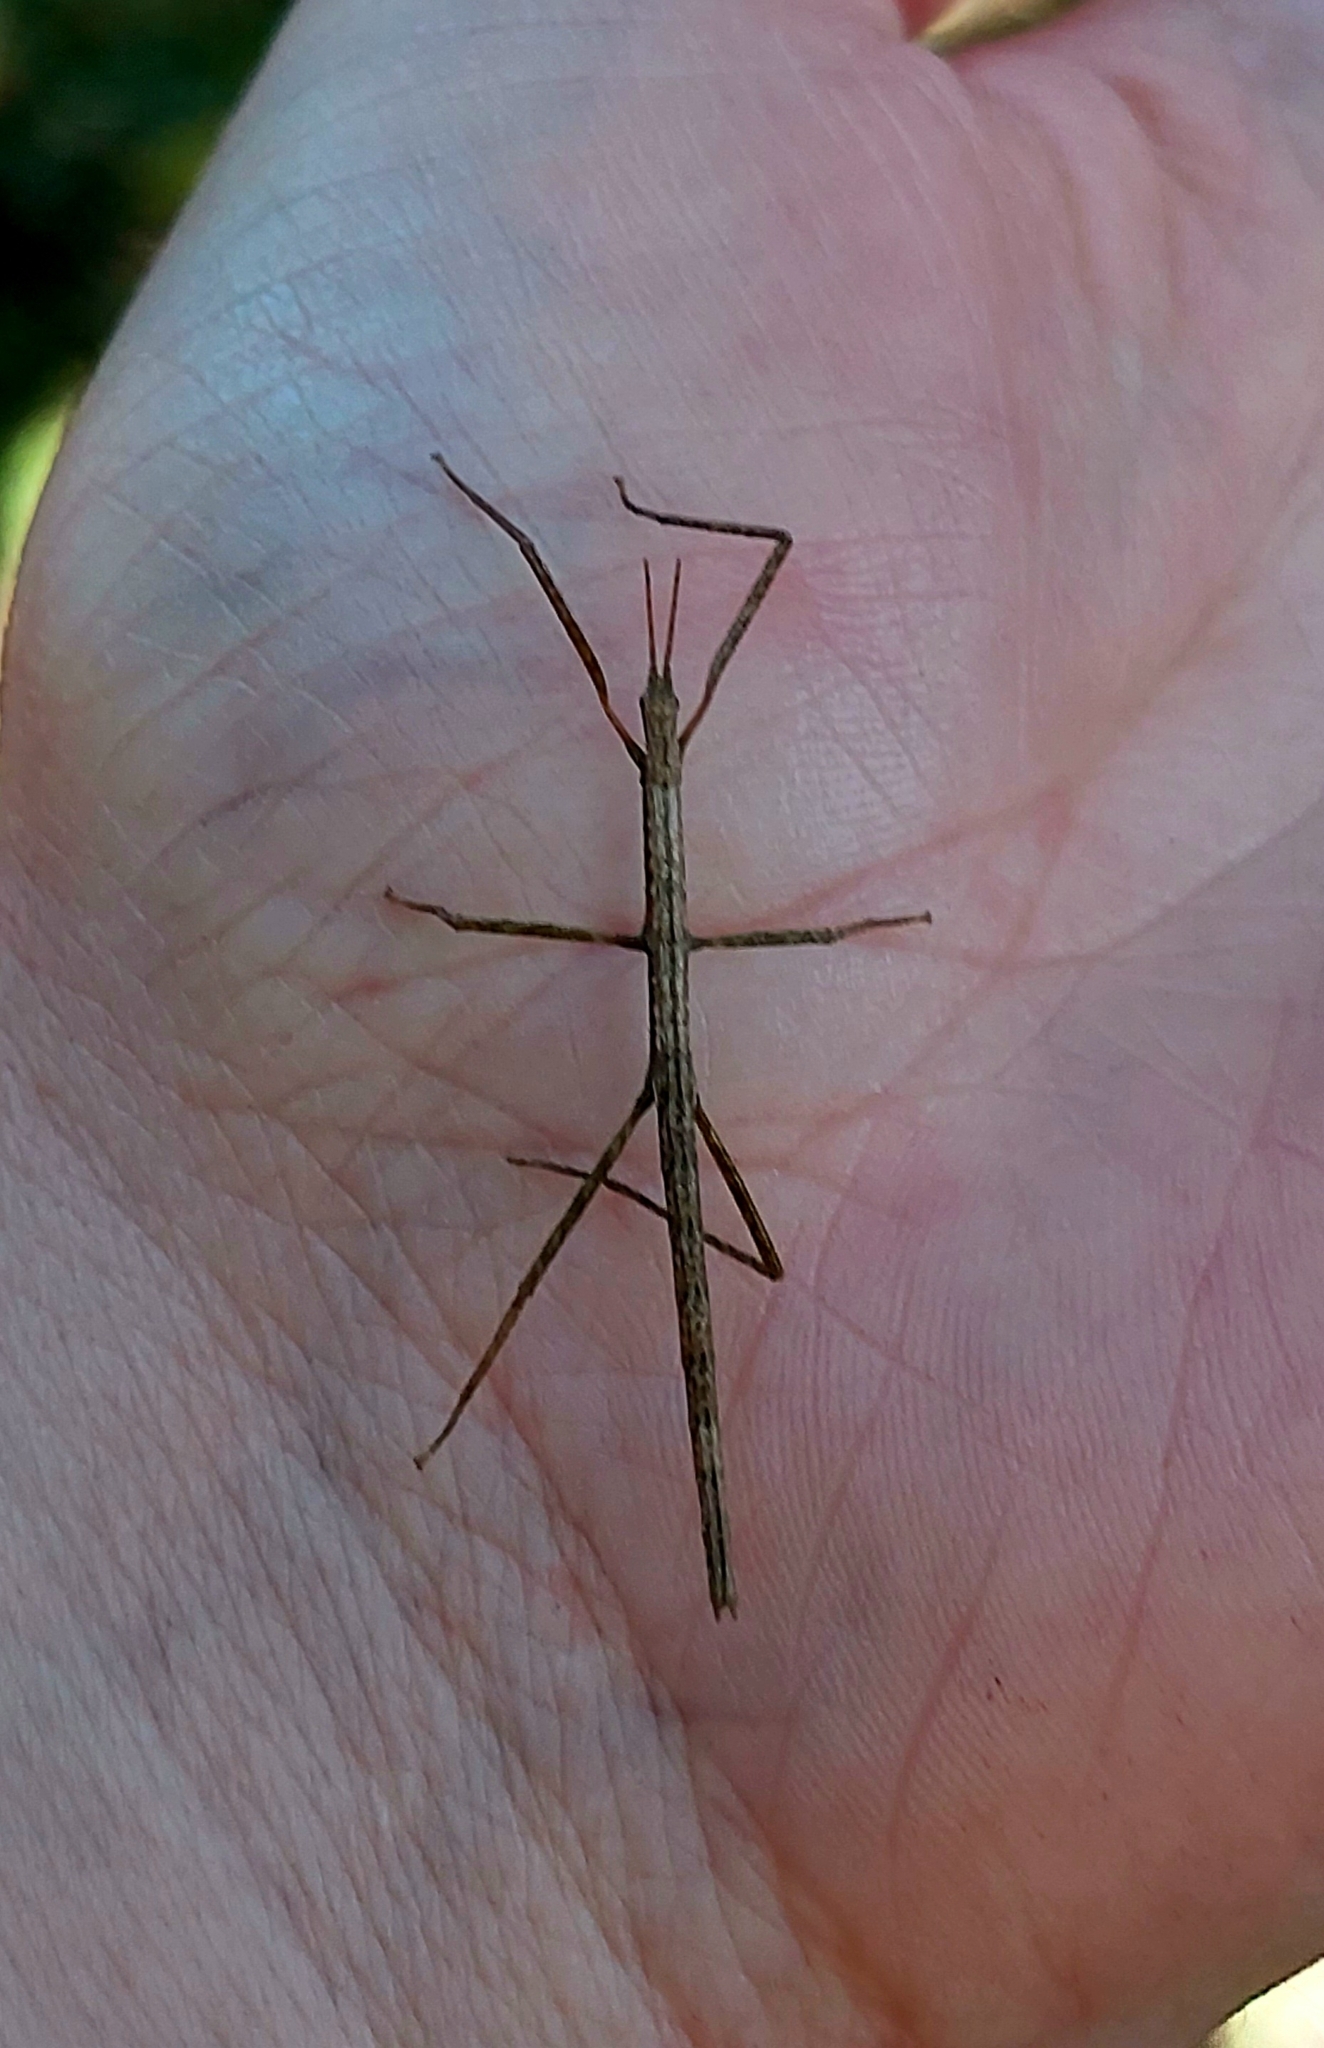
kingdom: Animalia
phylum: Arthropoda
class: Insecta
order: Phasmida
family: Phasmatidae
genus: Argosarchus
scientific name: Argosarchus horridus
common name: Bristly stick insect
